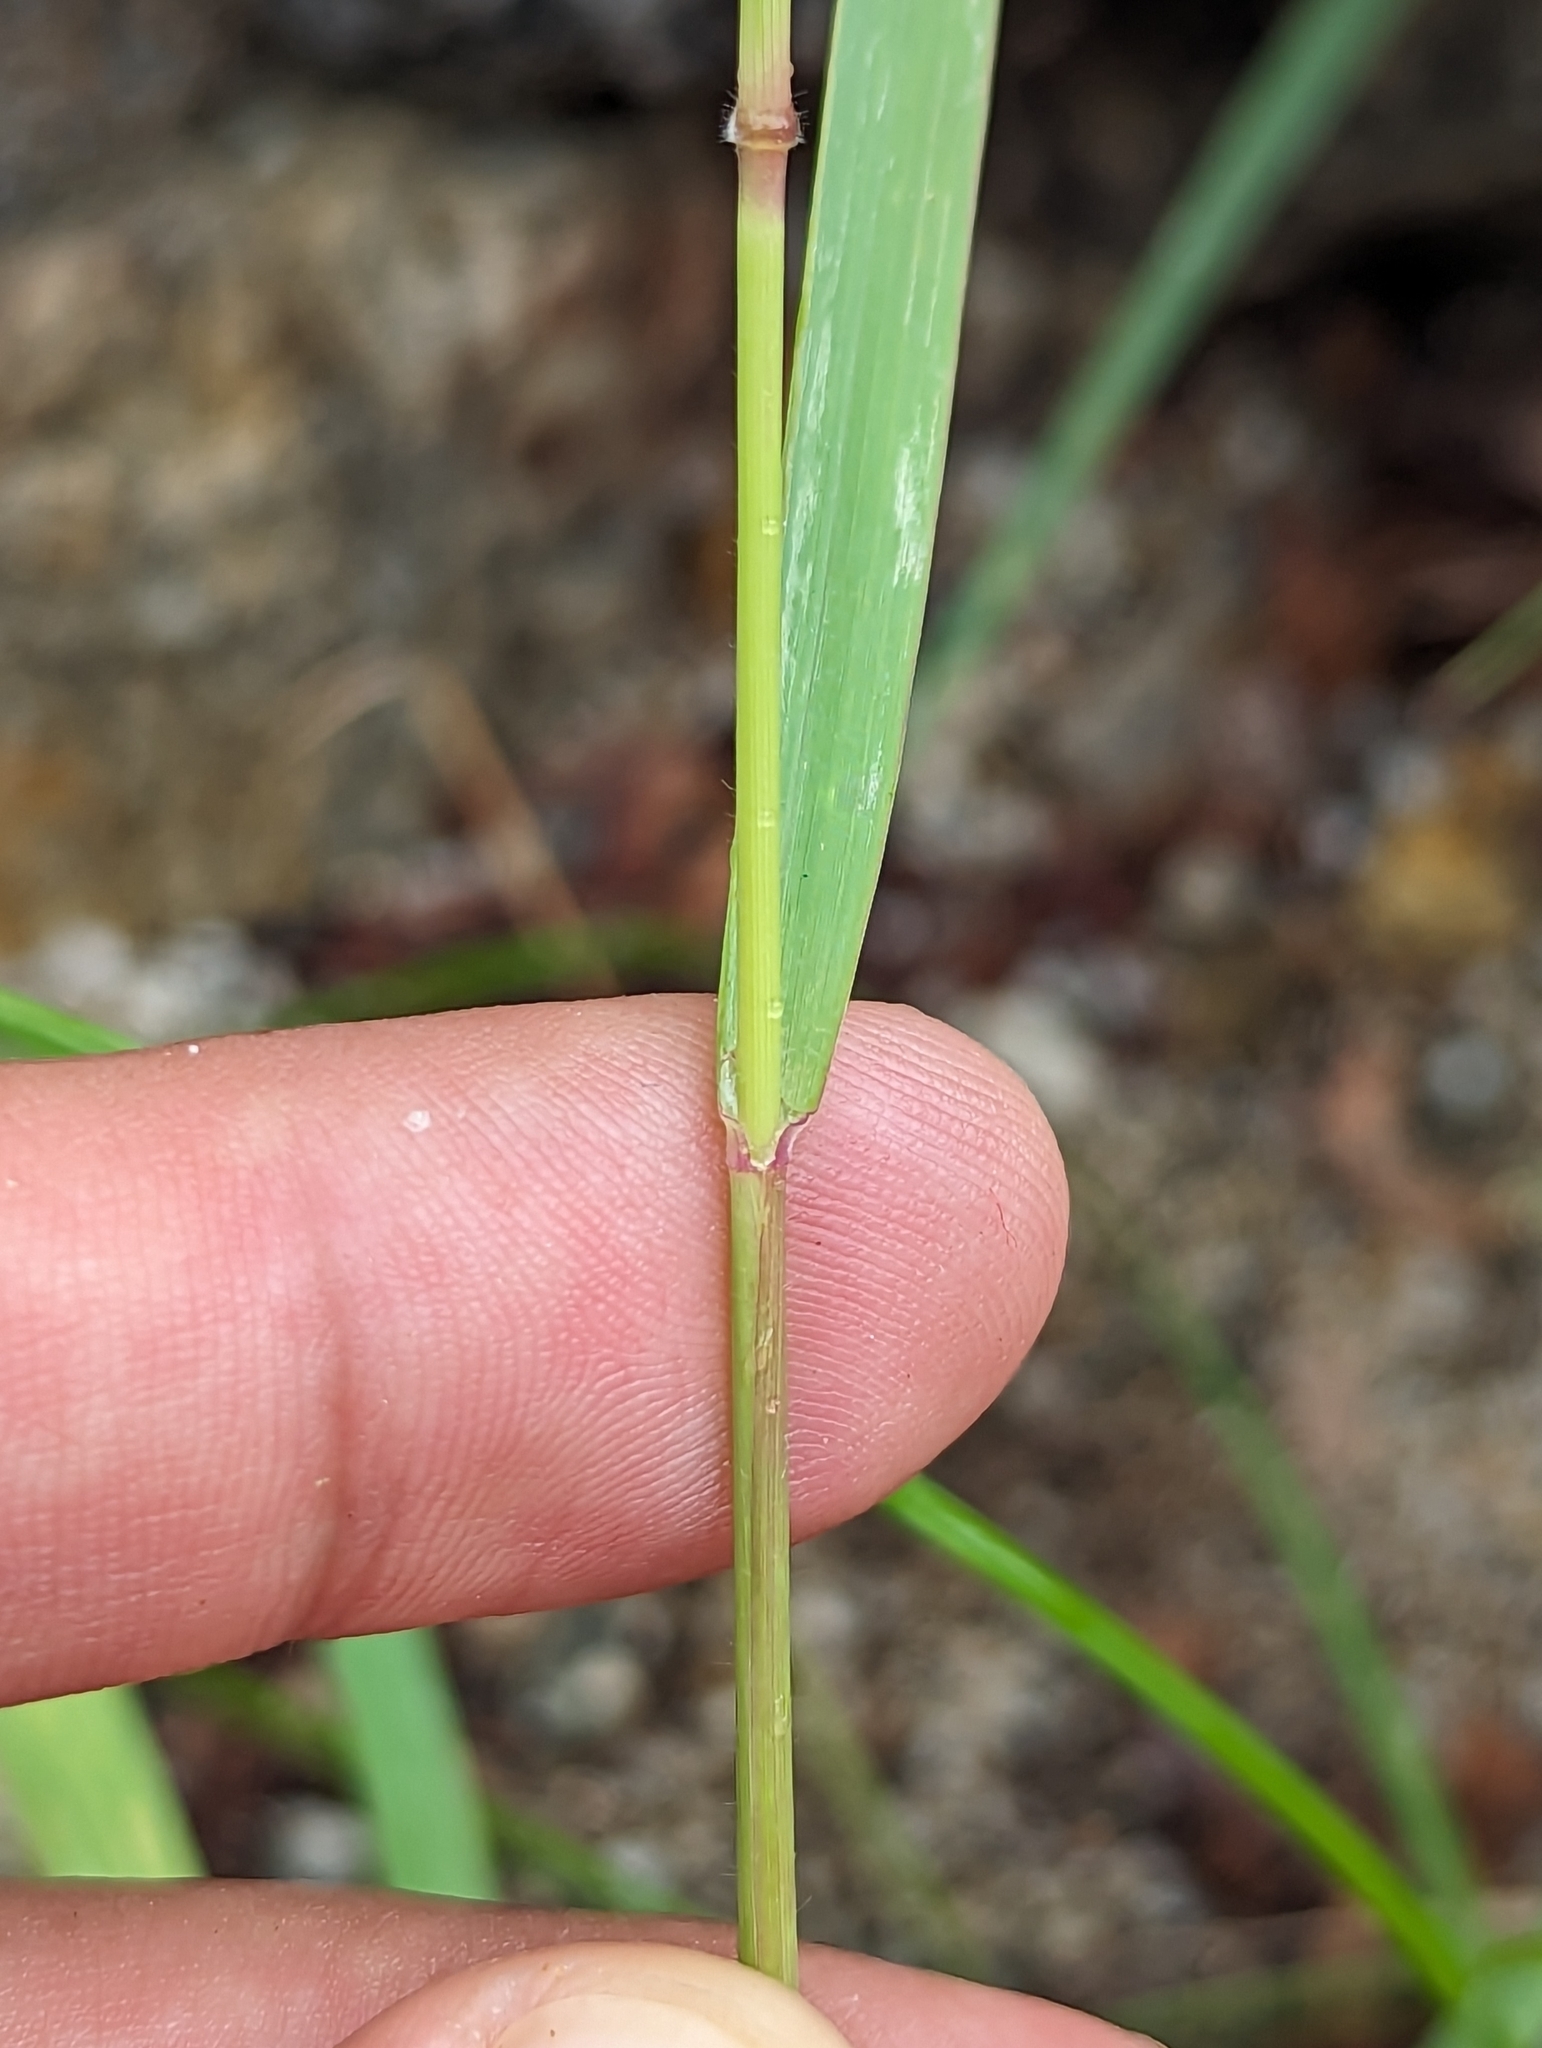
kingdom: Plantae
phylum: Tracheophyta
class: Liliopsida
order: Poales
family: Poaceae
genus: Melinis
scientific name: Melinis repens
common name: Rose natal grass
